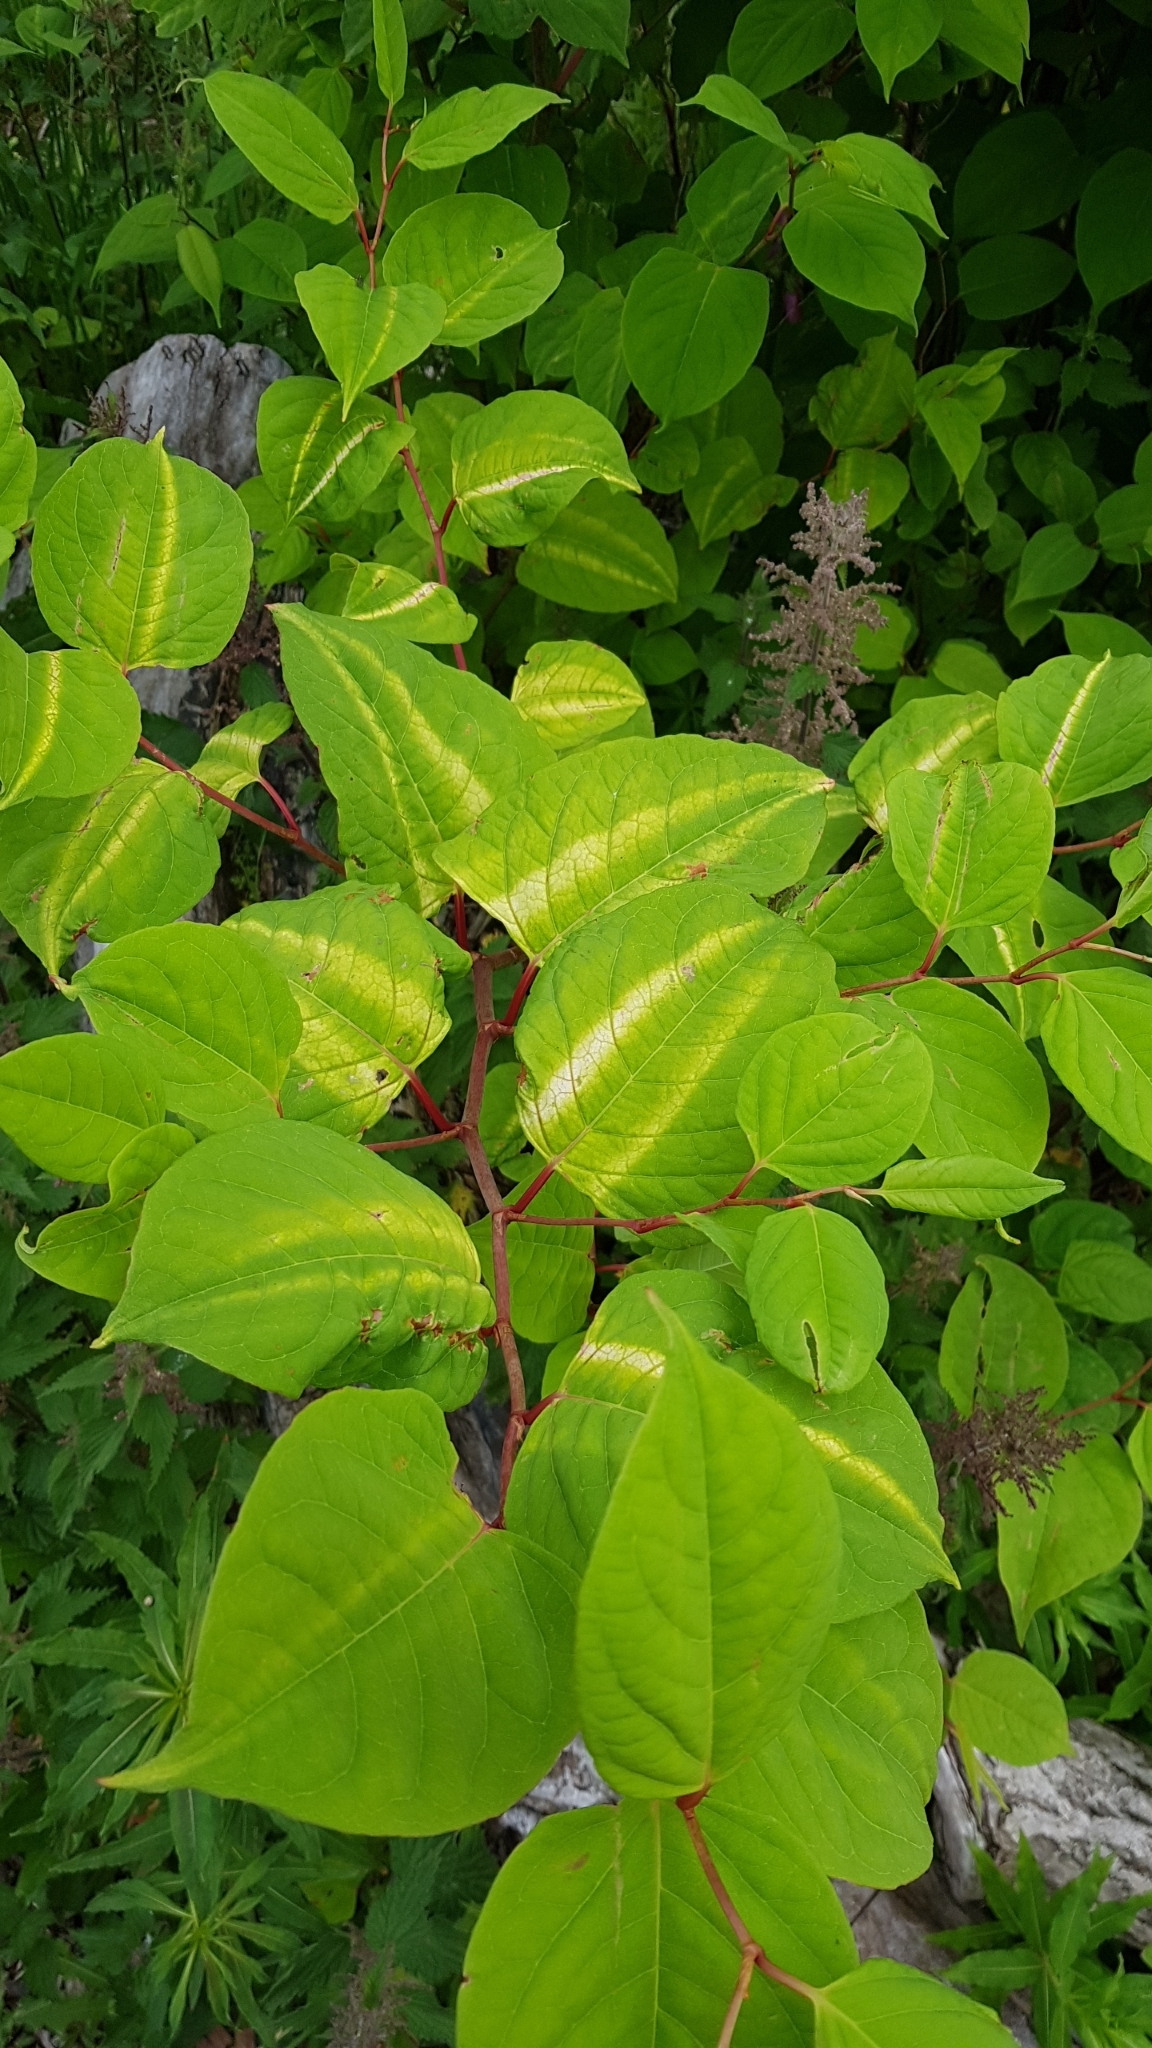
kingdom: Plantae
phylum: Tracheophyta
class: Magnoliopsida
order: Caryophyllales
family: Polygonaceae
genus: Reynoutria
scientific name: Reynoutria japonica
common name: Japanese knotweed
